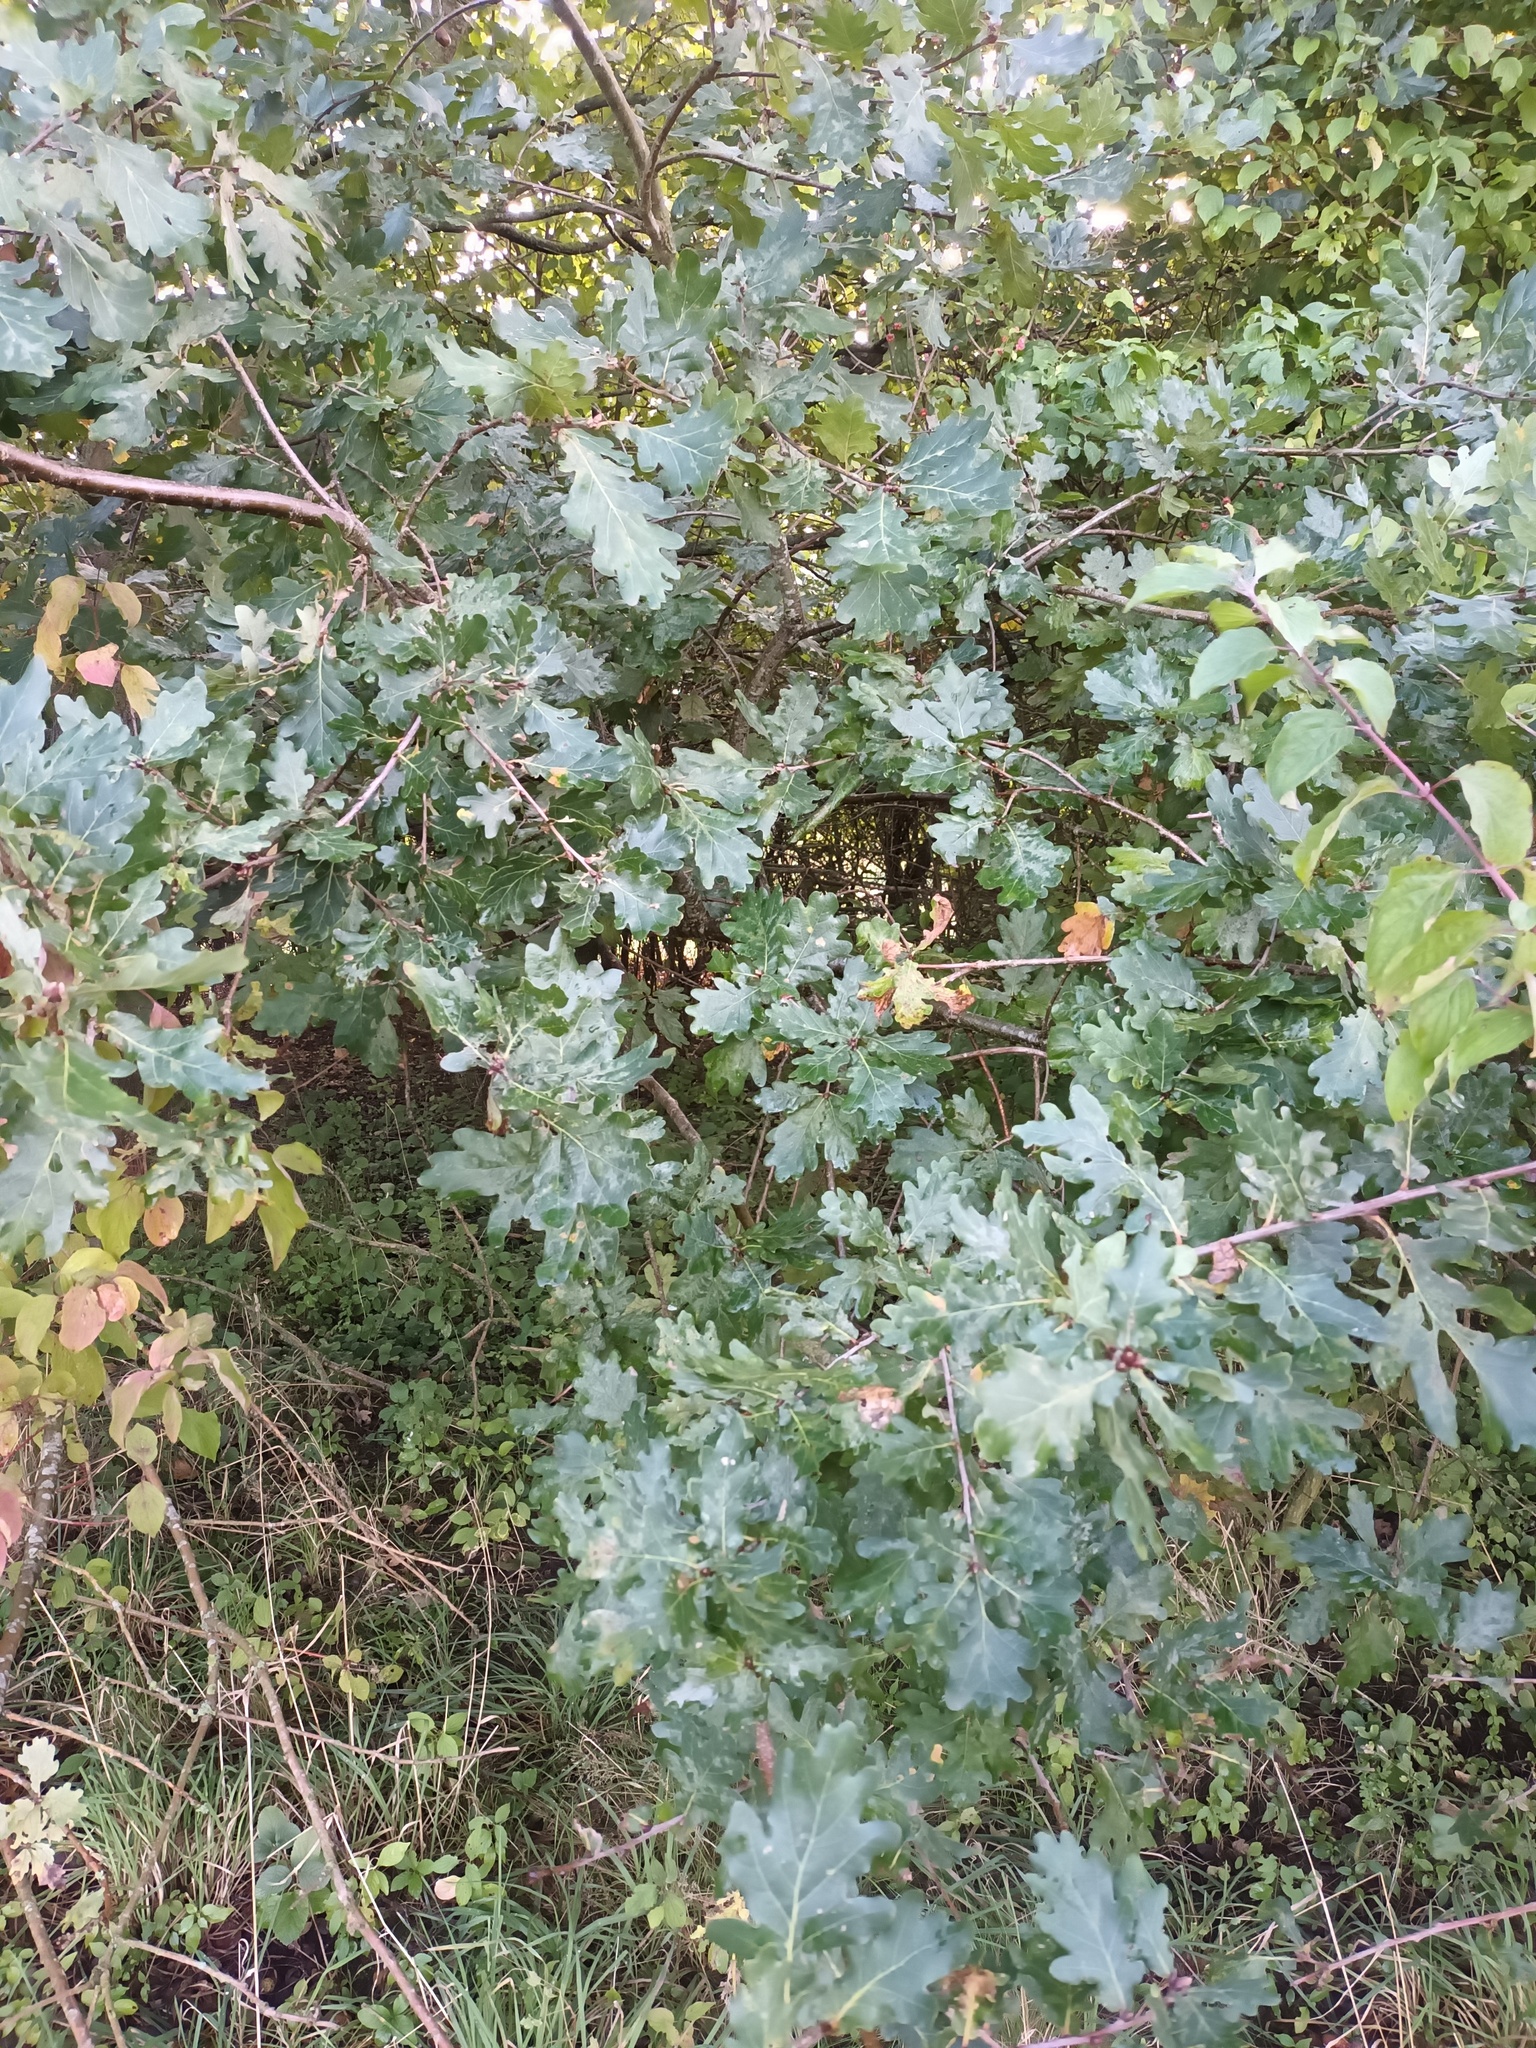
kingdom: Plantae
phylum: Tracheophyta
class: Magnoliopsida
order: Fagales
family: Fagaceae
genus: Quercus
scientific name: Quercus robur
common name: Pedunculate oak
